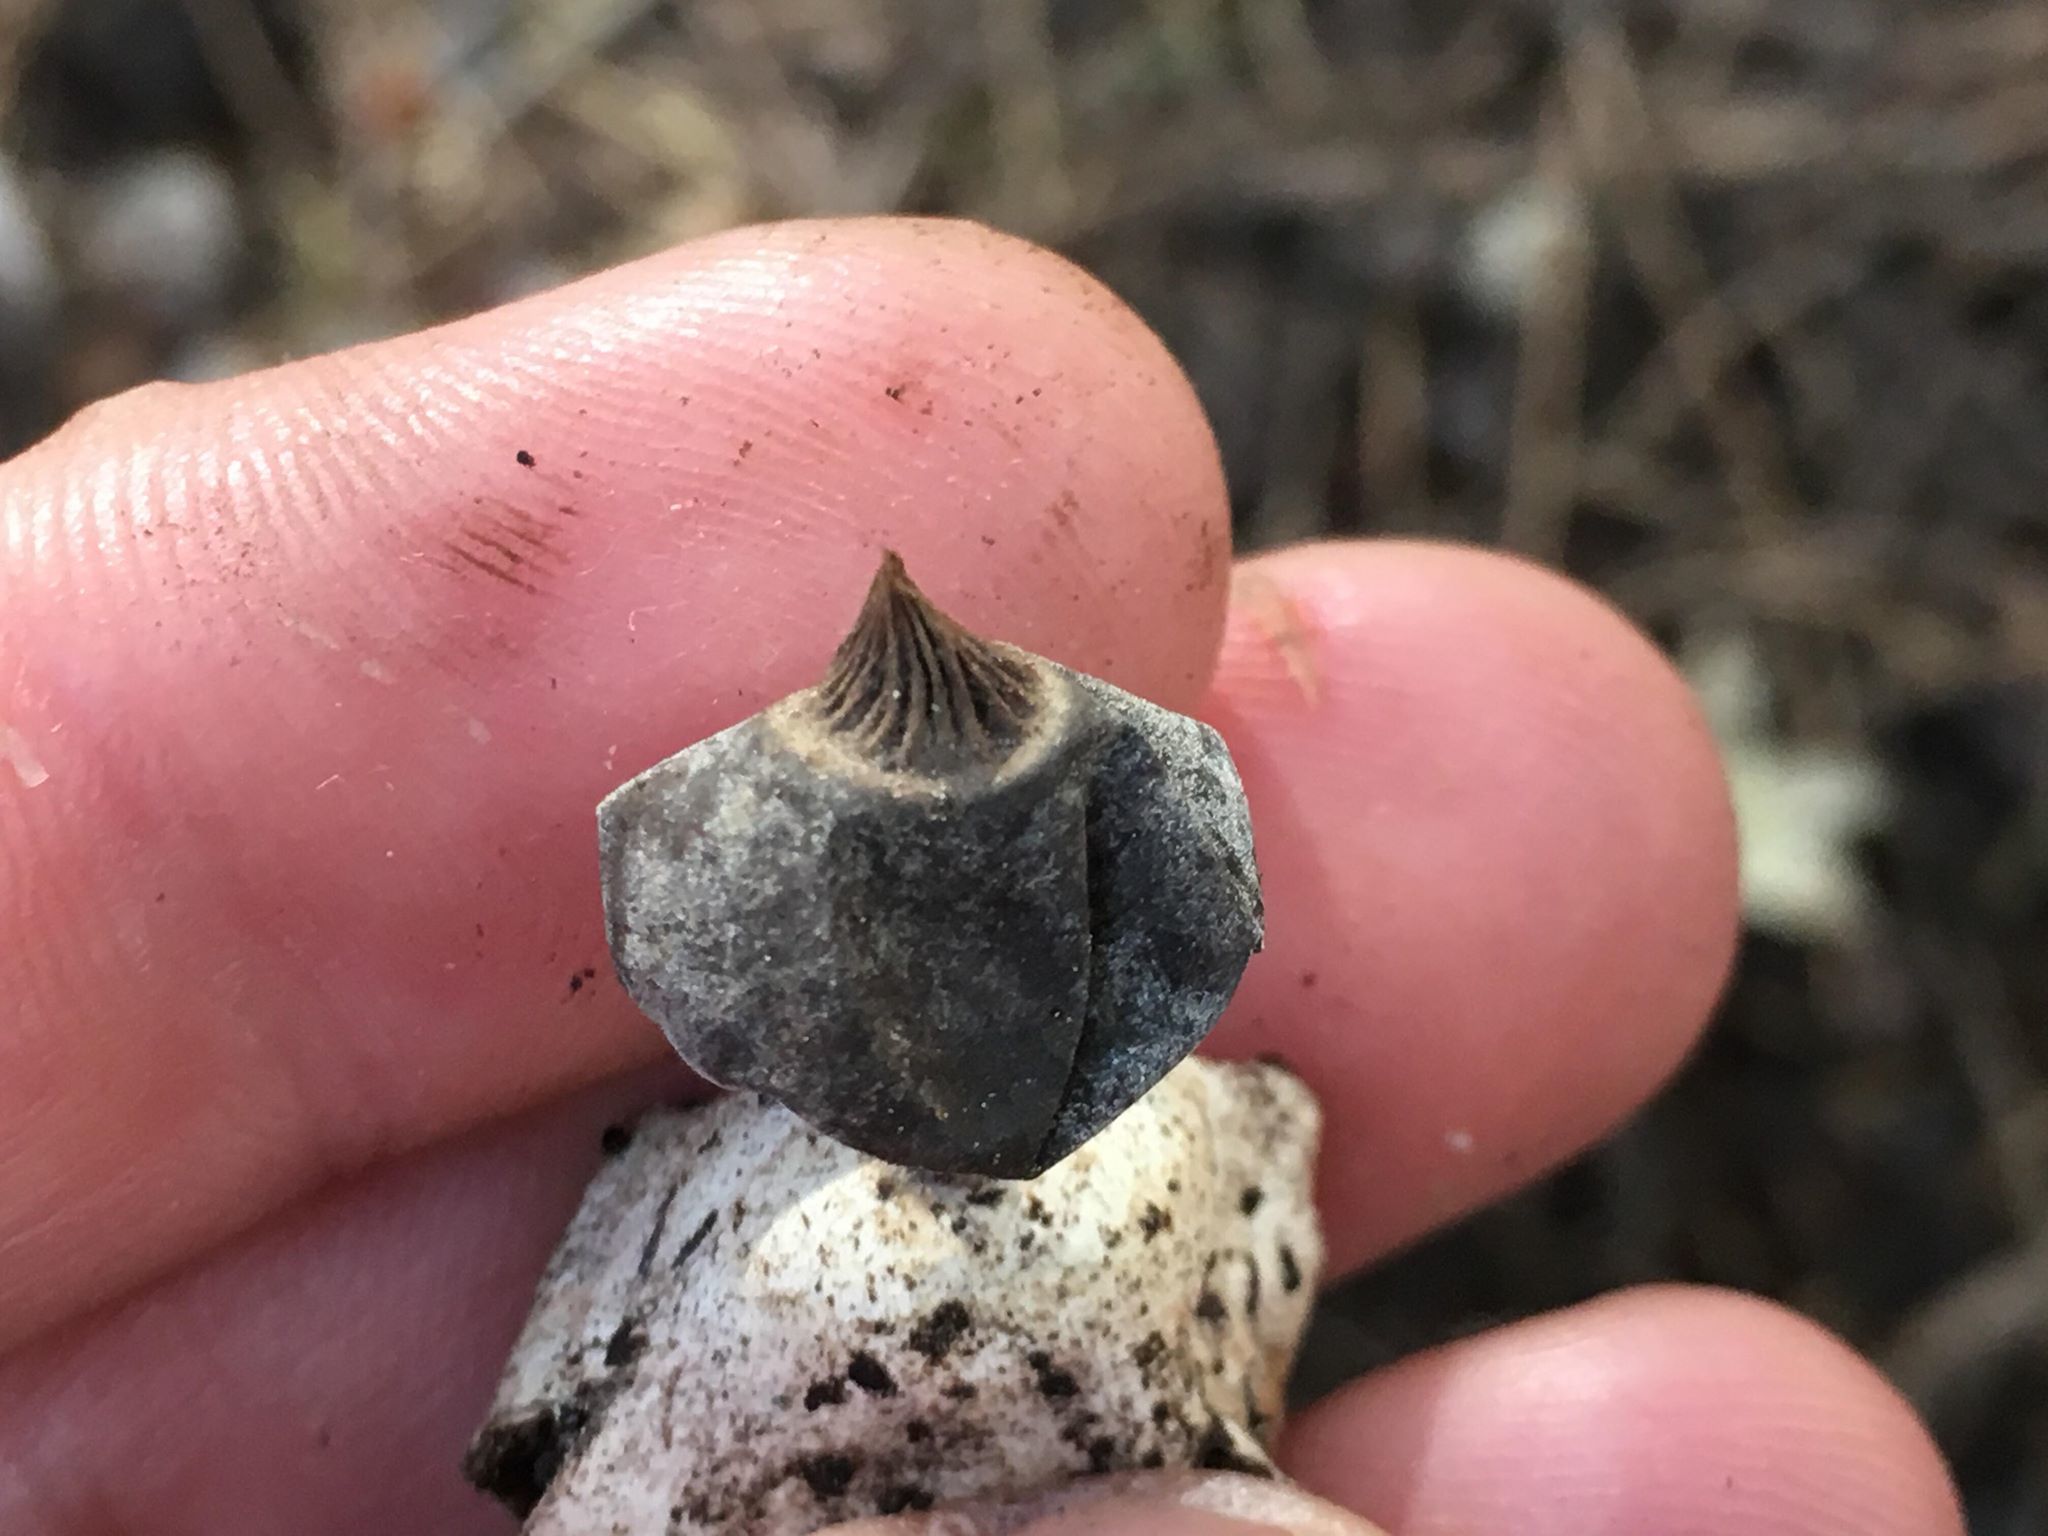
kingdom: Fungi
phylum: Basidiomycota
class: Agaricomycetes
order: Geastrales
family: Geastraceae
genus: Geastrum
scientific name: Geastrum pectinatum
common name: Beaked earthstar
